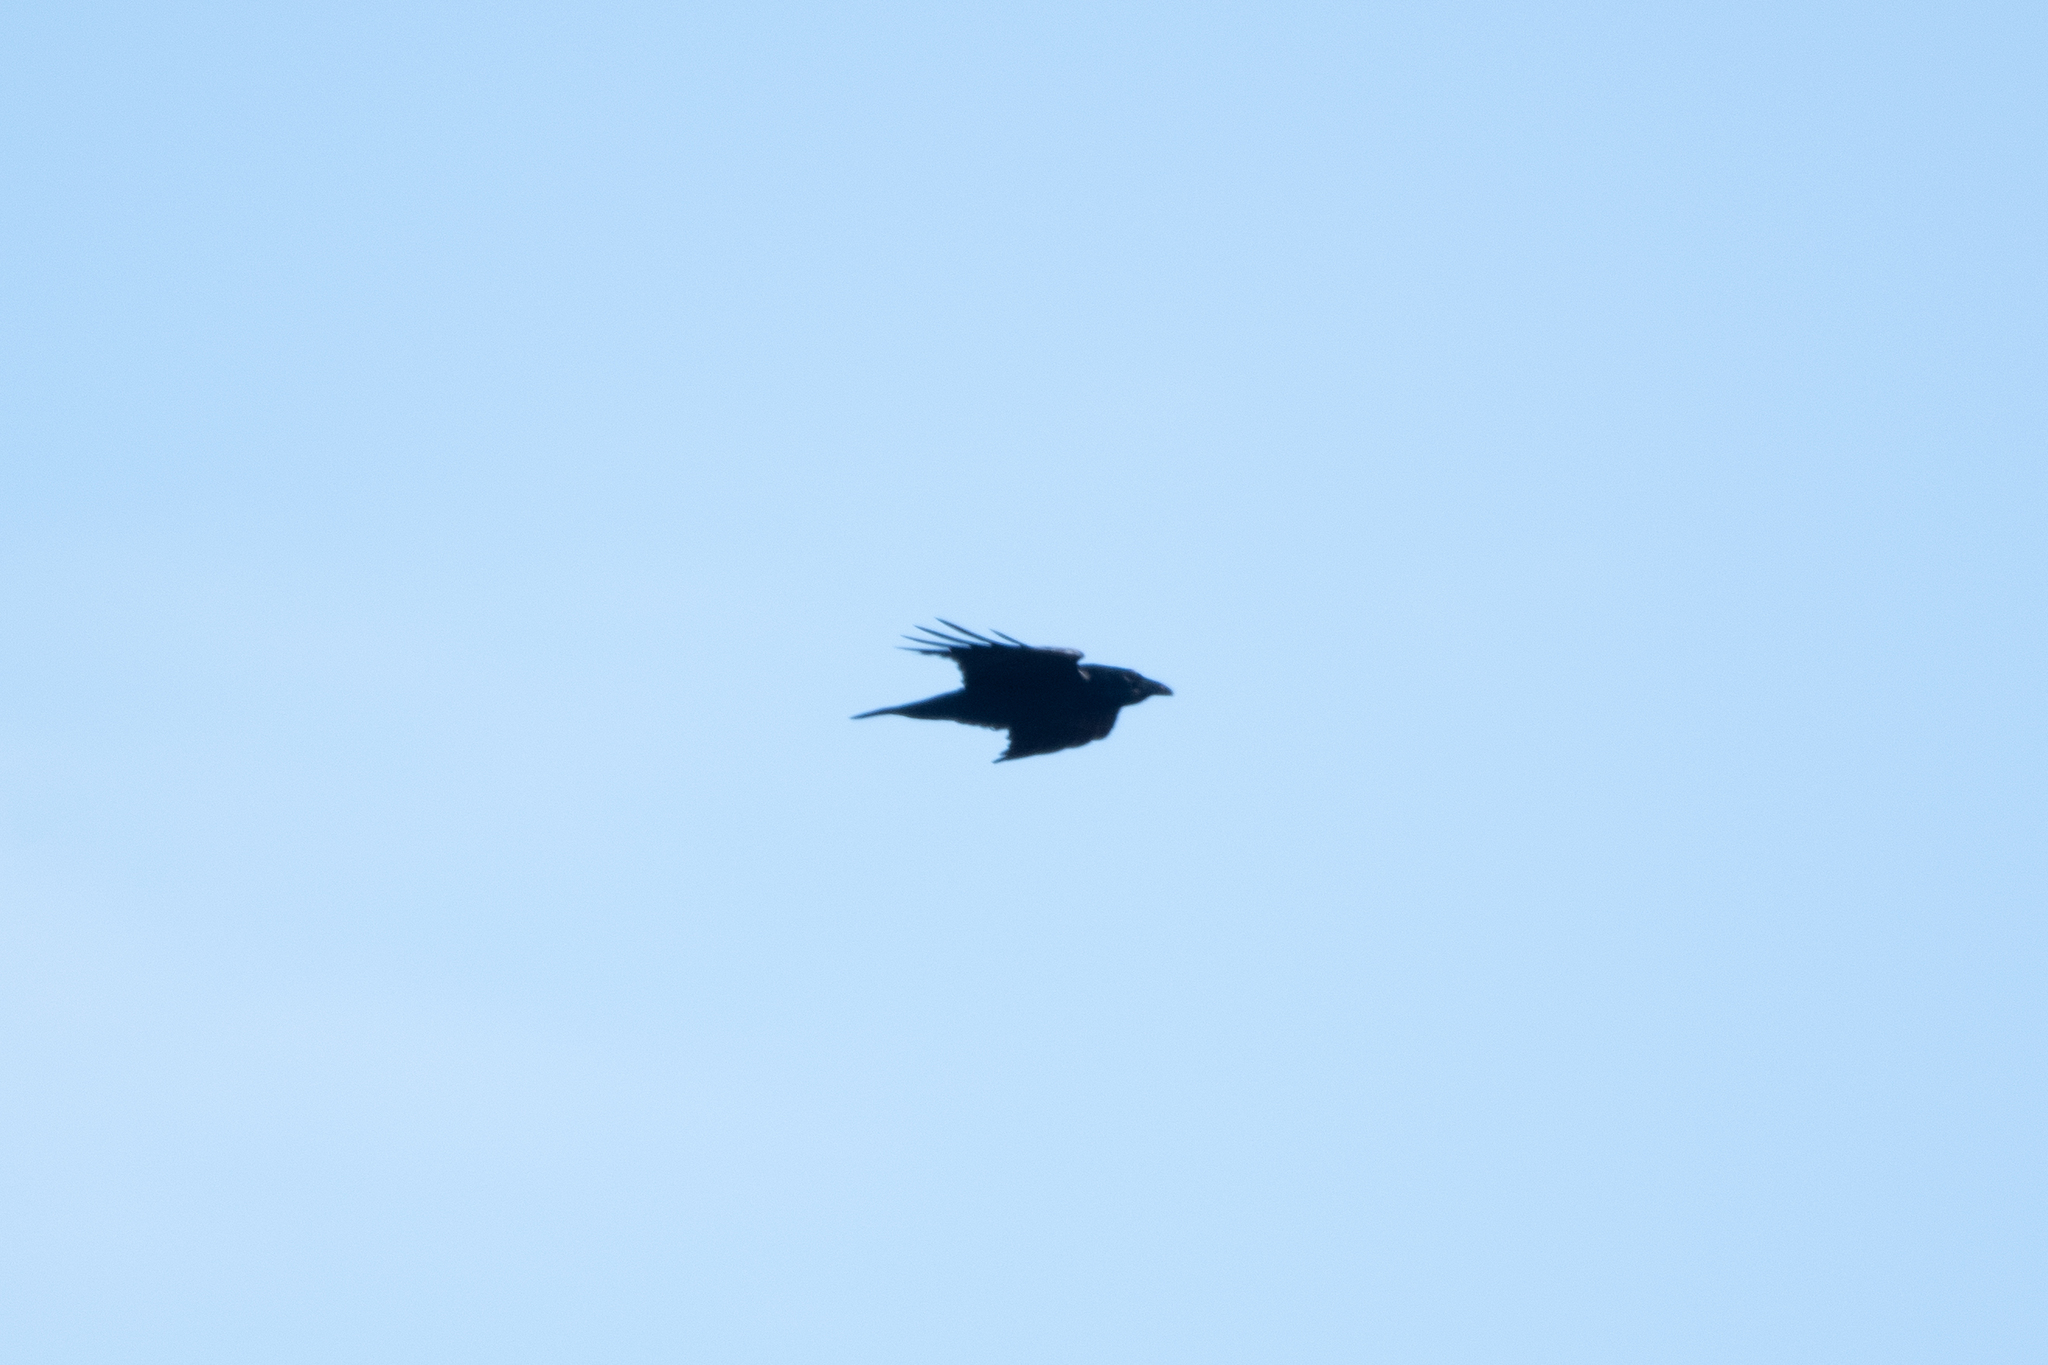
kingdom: Animalia
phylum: Chordata
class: Aves
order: Passeriformes
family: Corvidae
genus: Corvus
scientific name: Corvus corax
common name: Common raven
